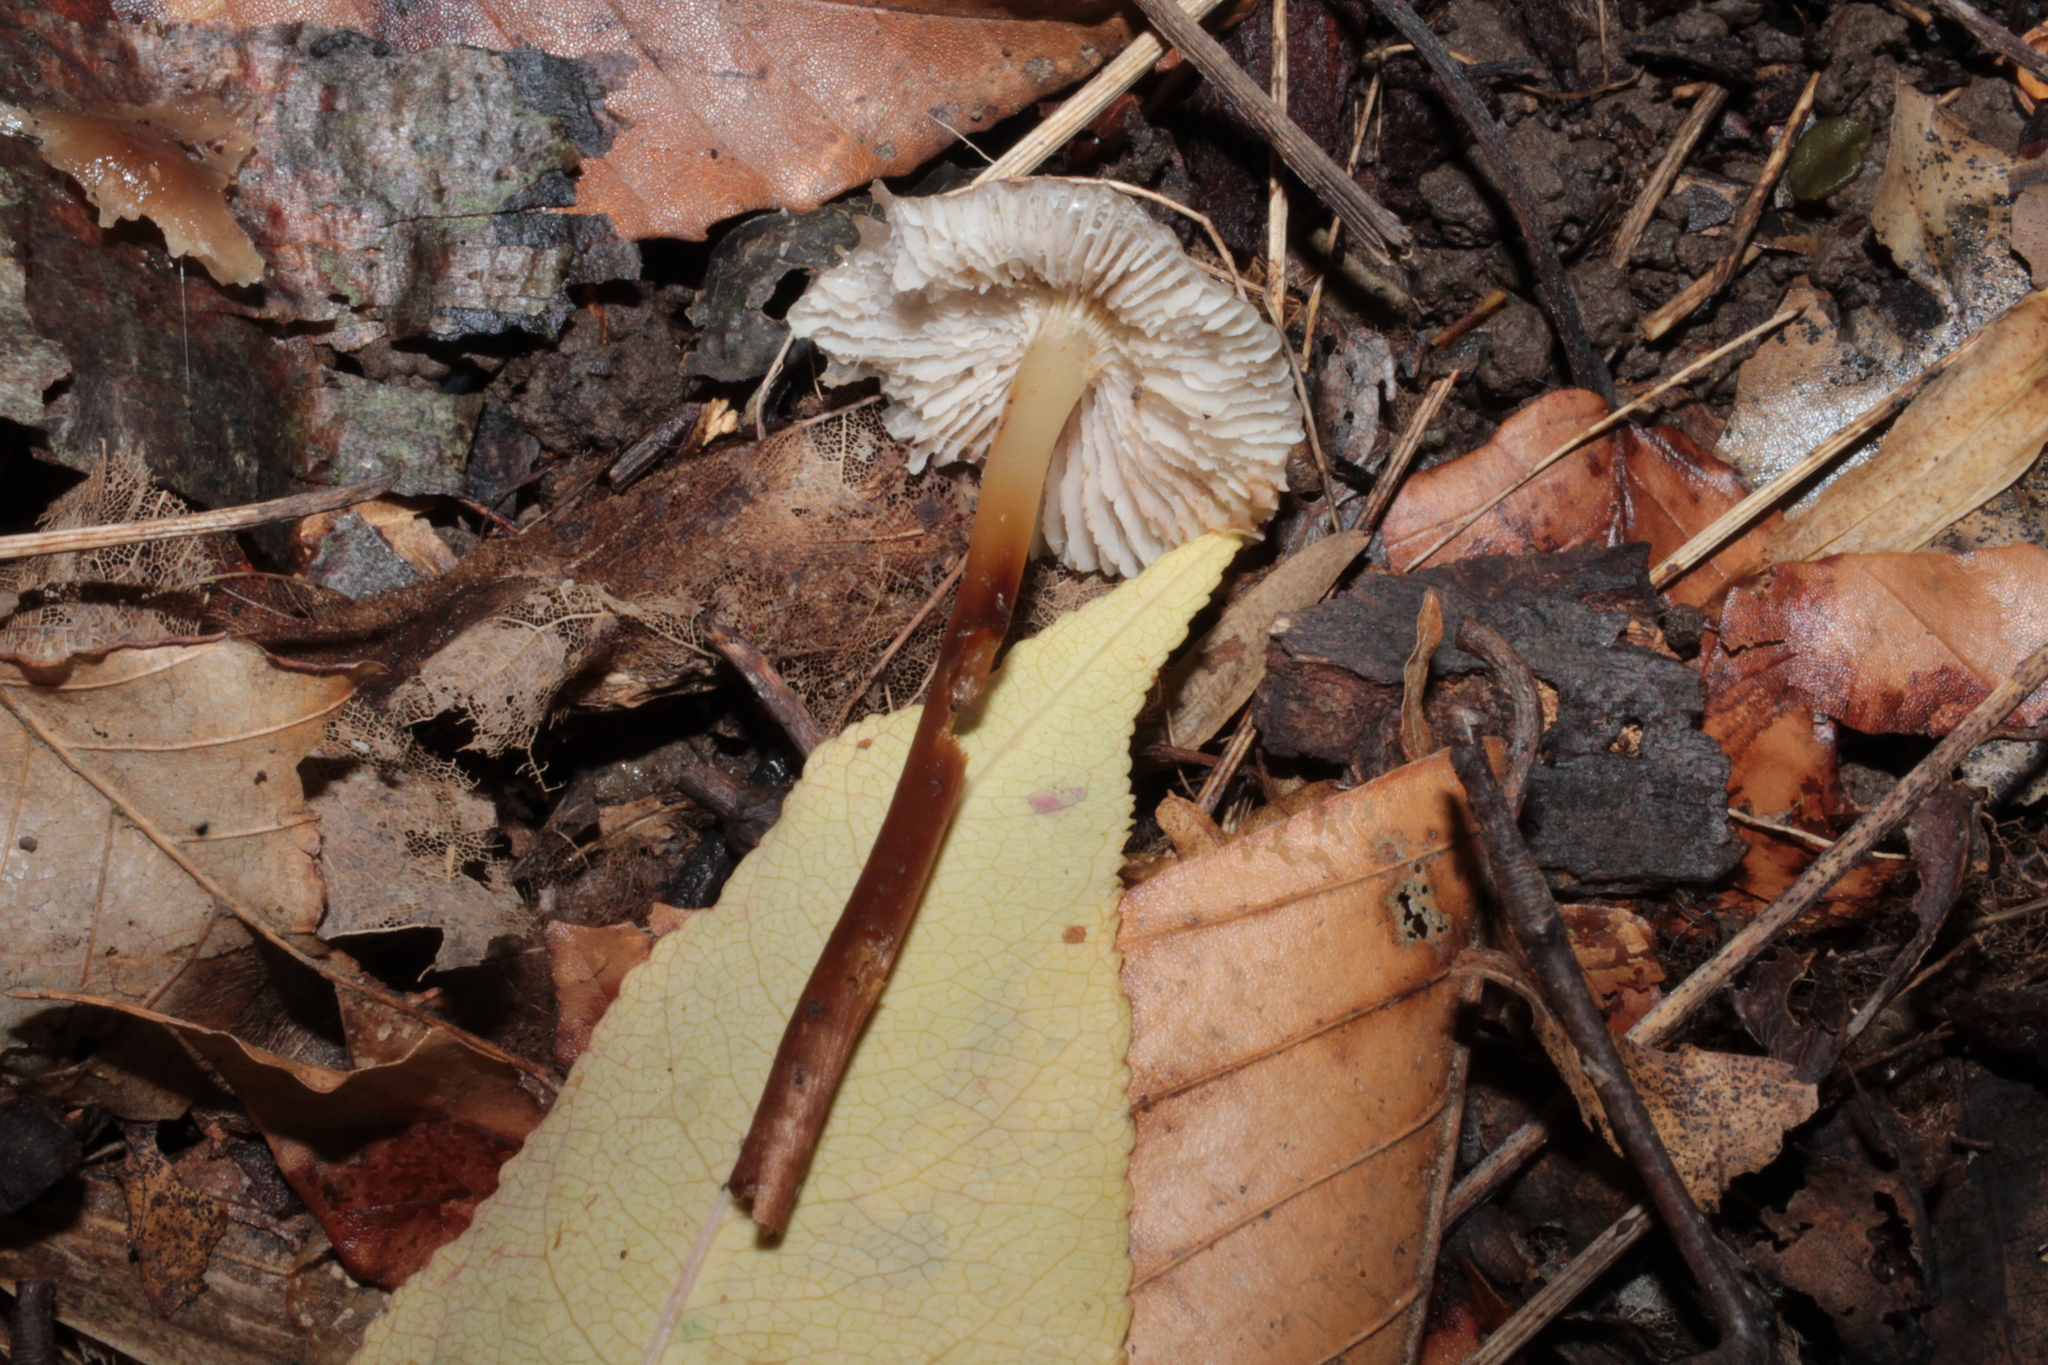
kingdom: Fungi
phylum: Basidiomycota
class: Agaricomycetes
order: Agaricales
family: Mycenaceae
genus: Mycena
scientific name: Mycena inclinata
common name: Clustered bonnet
